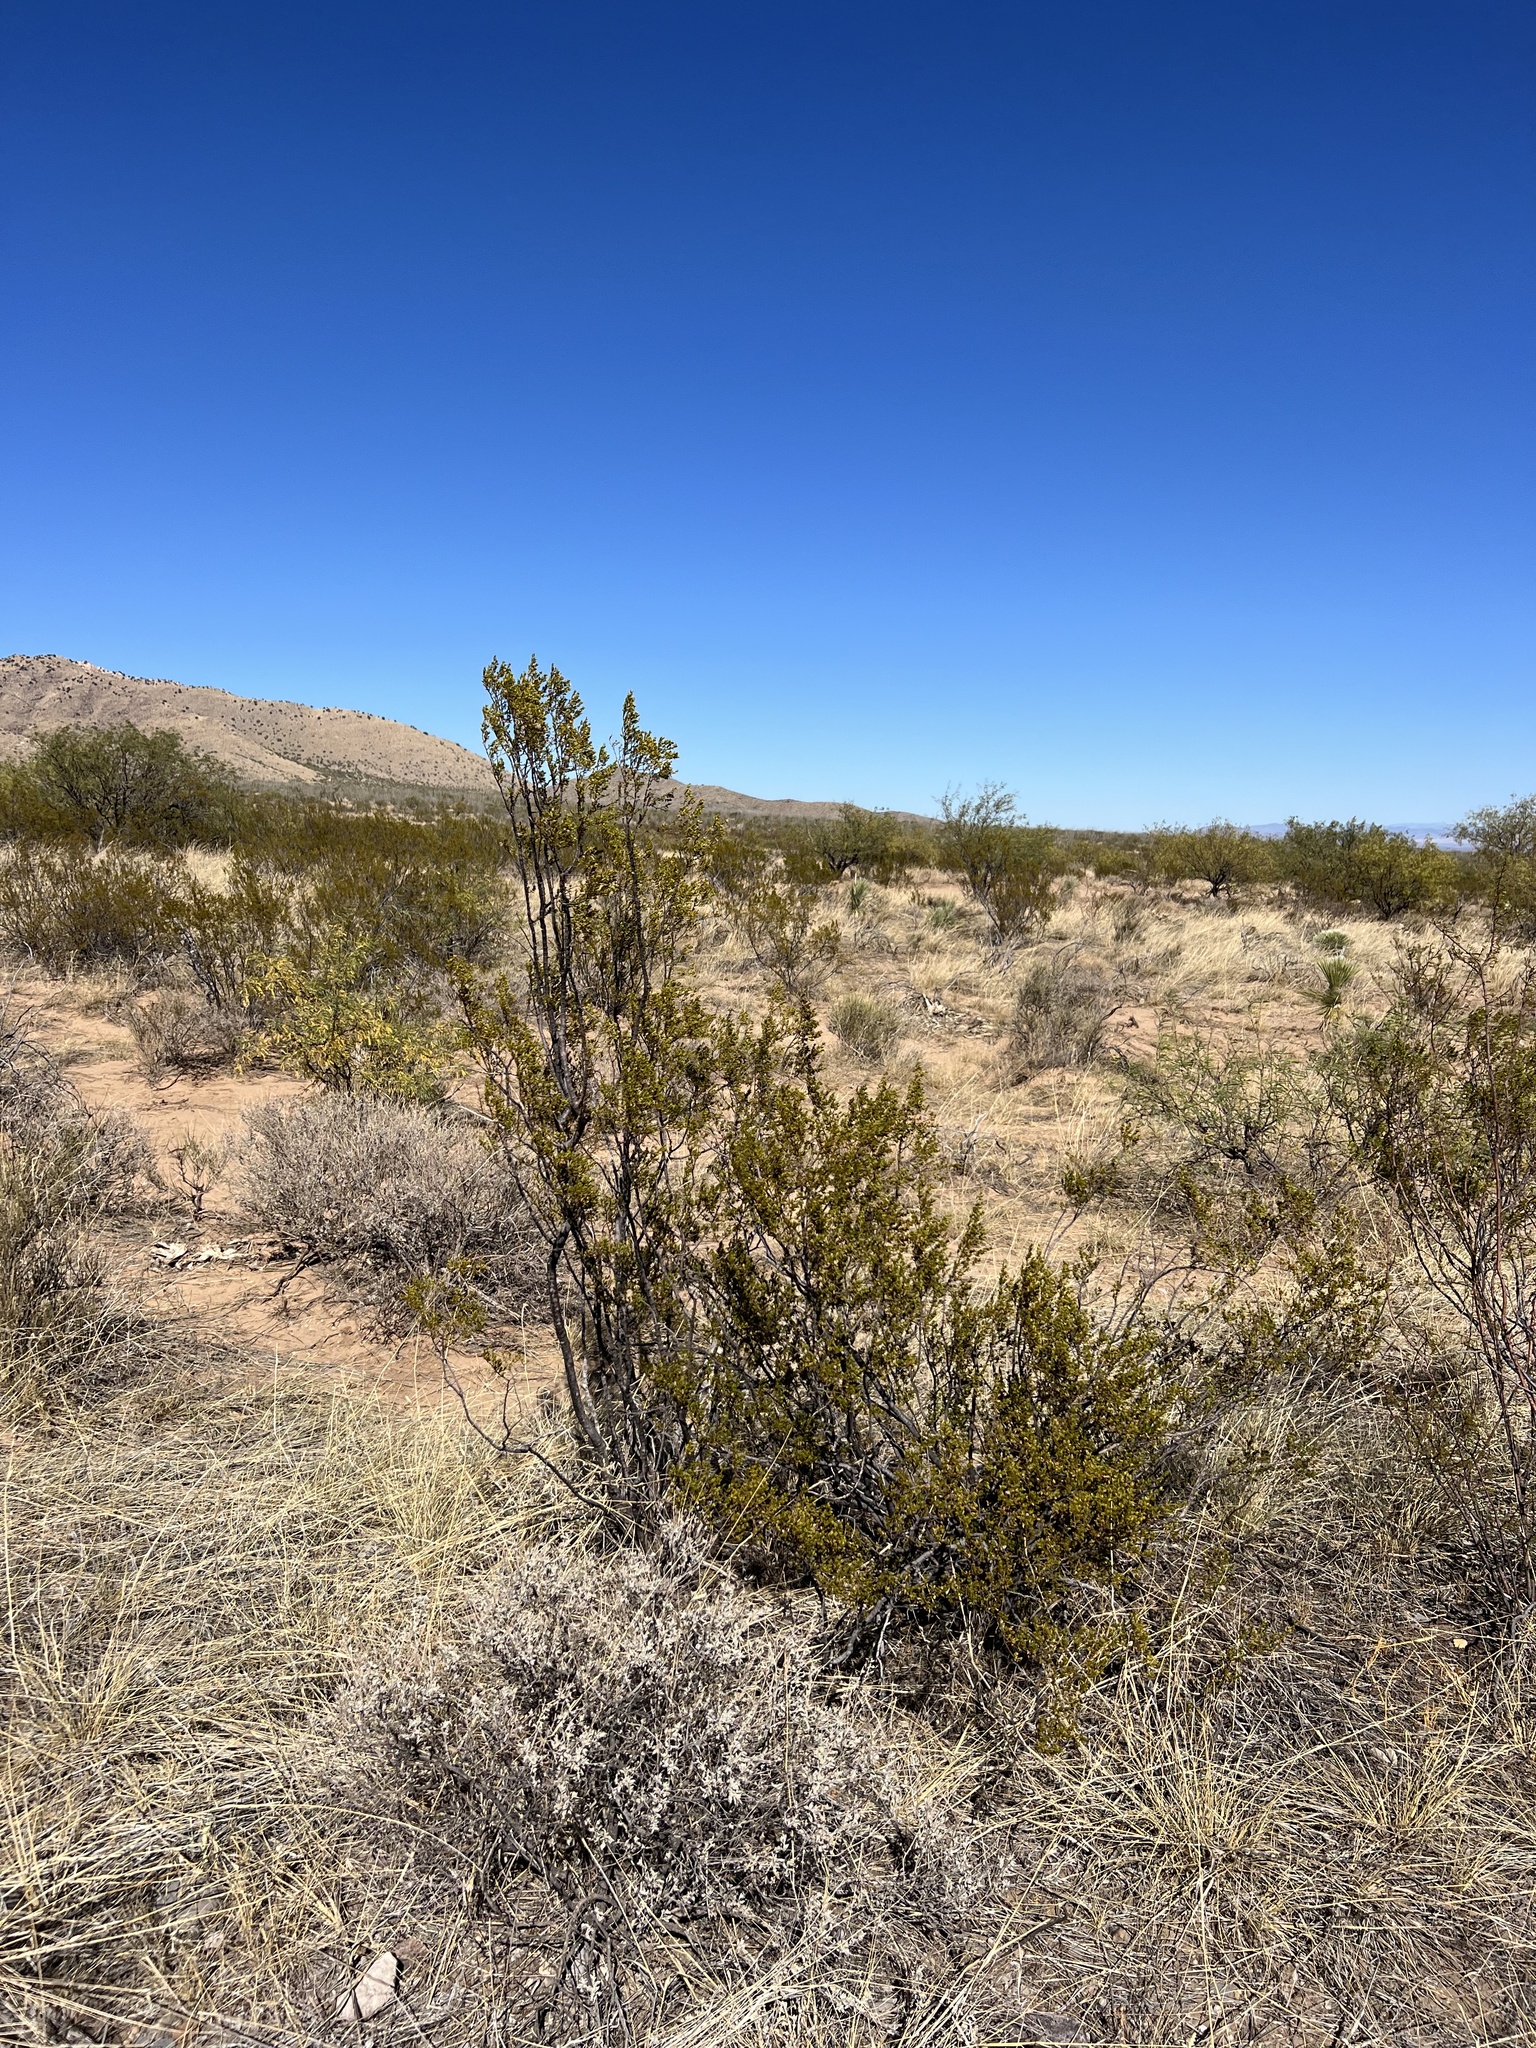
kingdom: Plantae
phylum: Tracheophyta
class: Magnoliopsida
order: Zygophyllales
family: Zygophyllaceae
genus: Larrea
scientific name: Larrea tridentata
